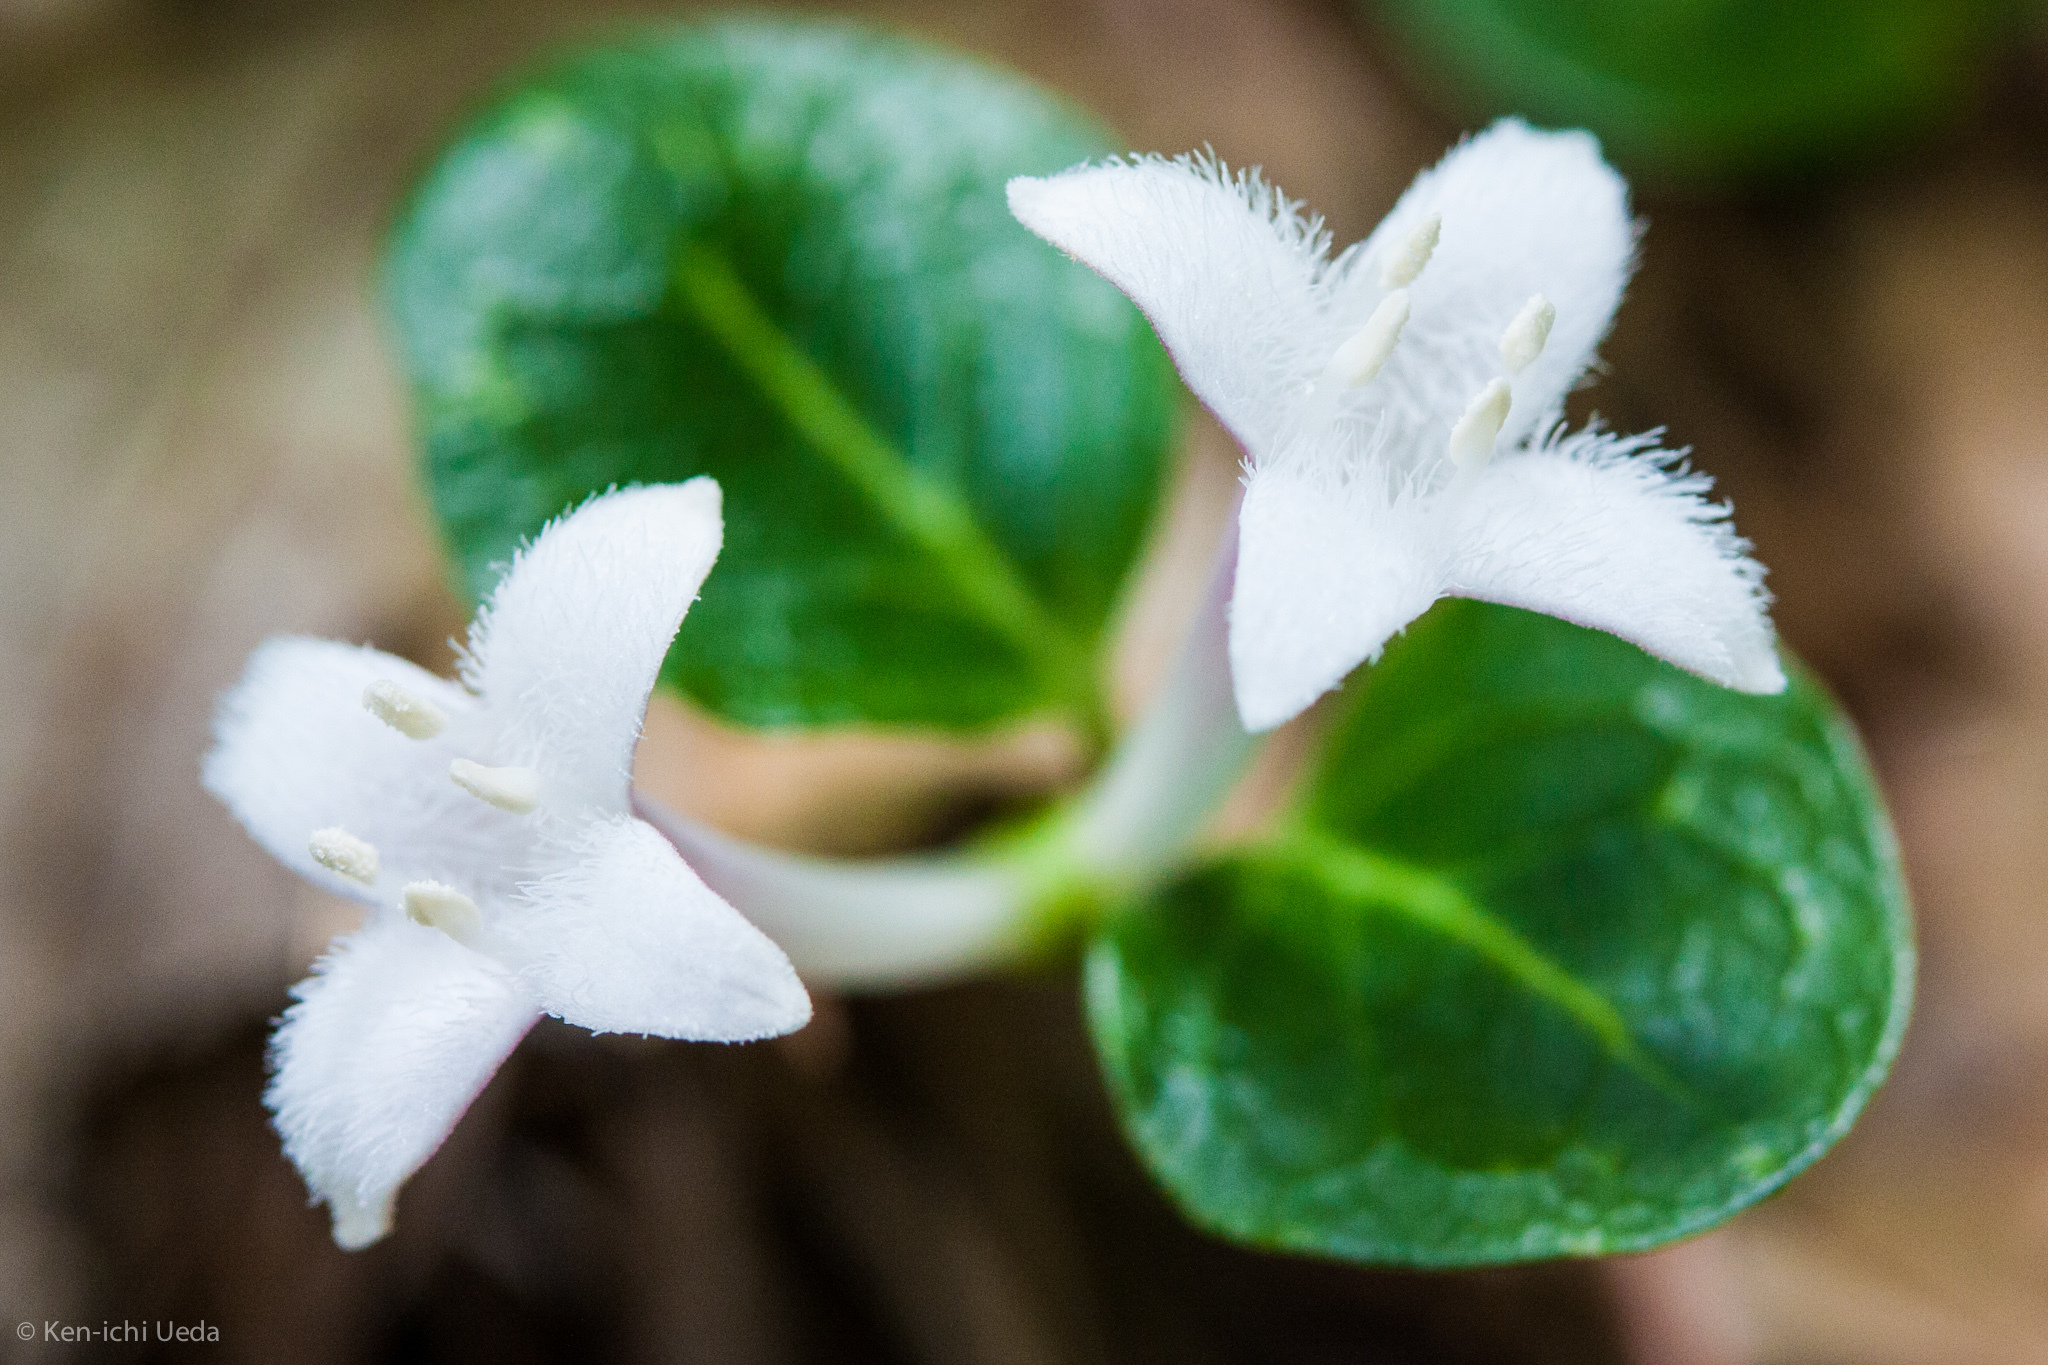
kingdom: Plantae
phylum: Tracheophyta
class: Magnoliopsida
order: Gentianales
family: Rubiaceae
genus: Mitchella
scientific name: Mitchella repens
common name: Partridge-berry
